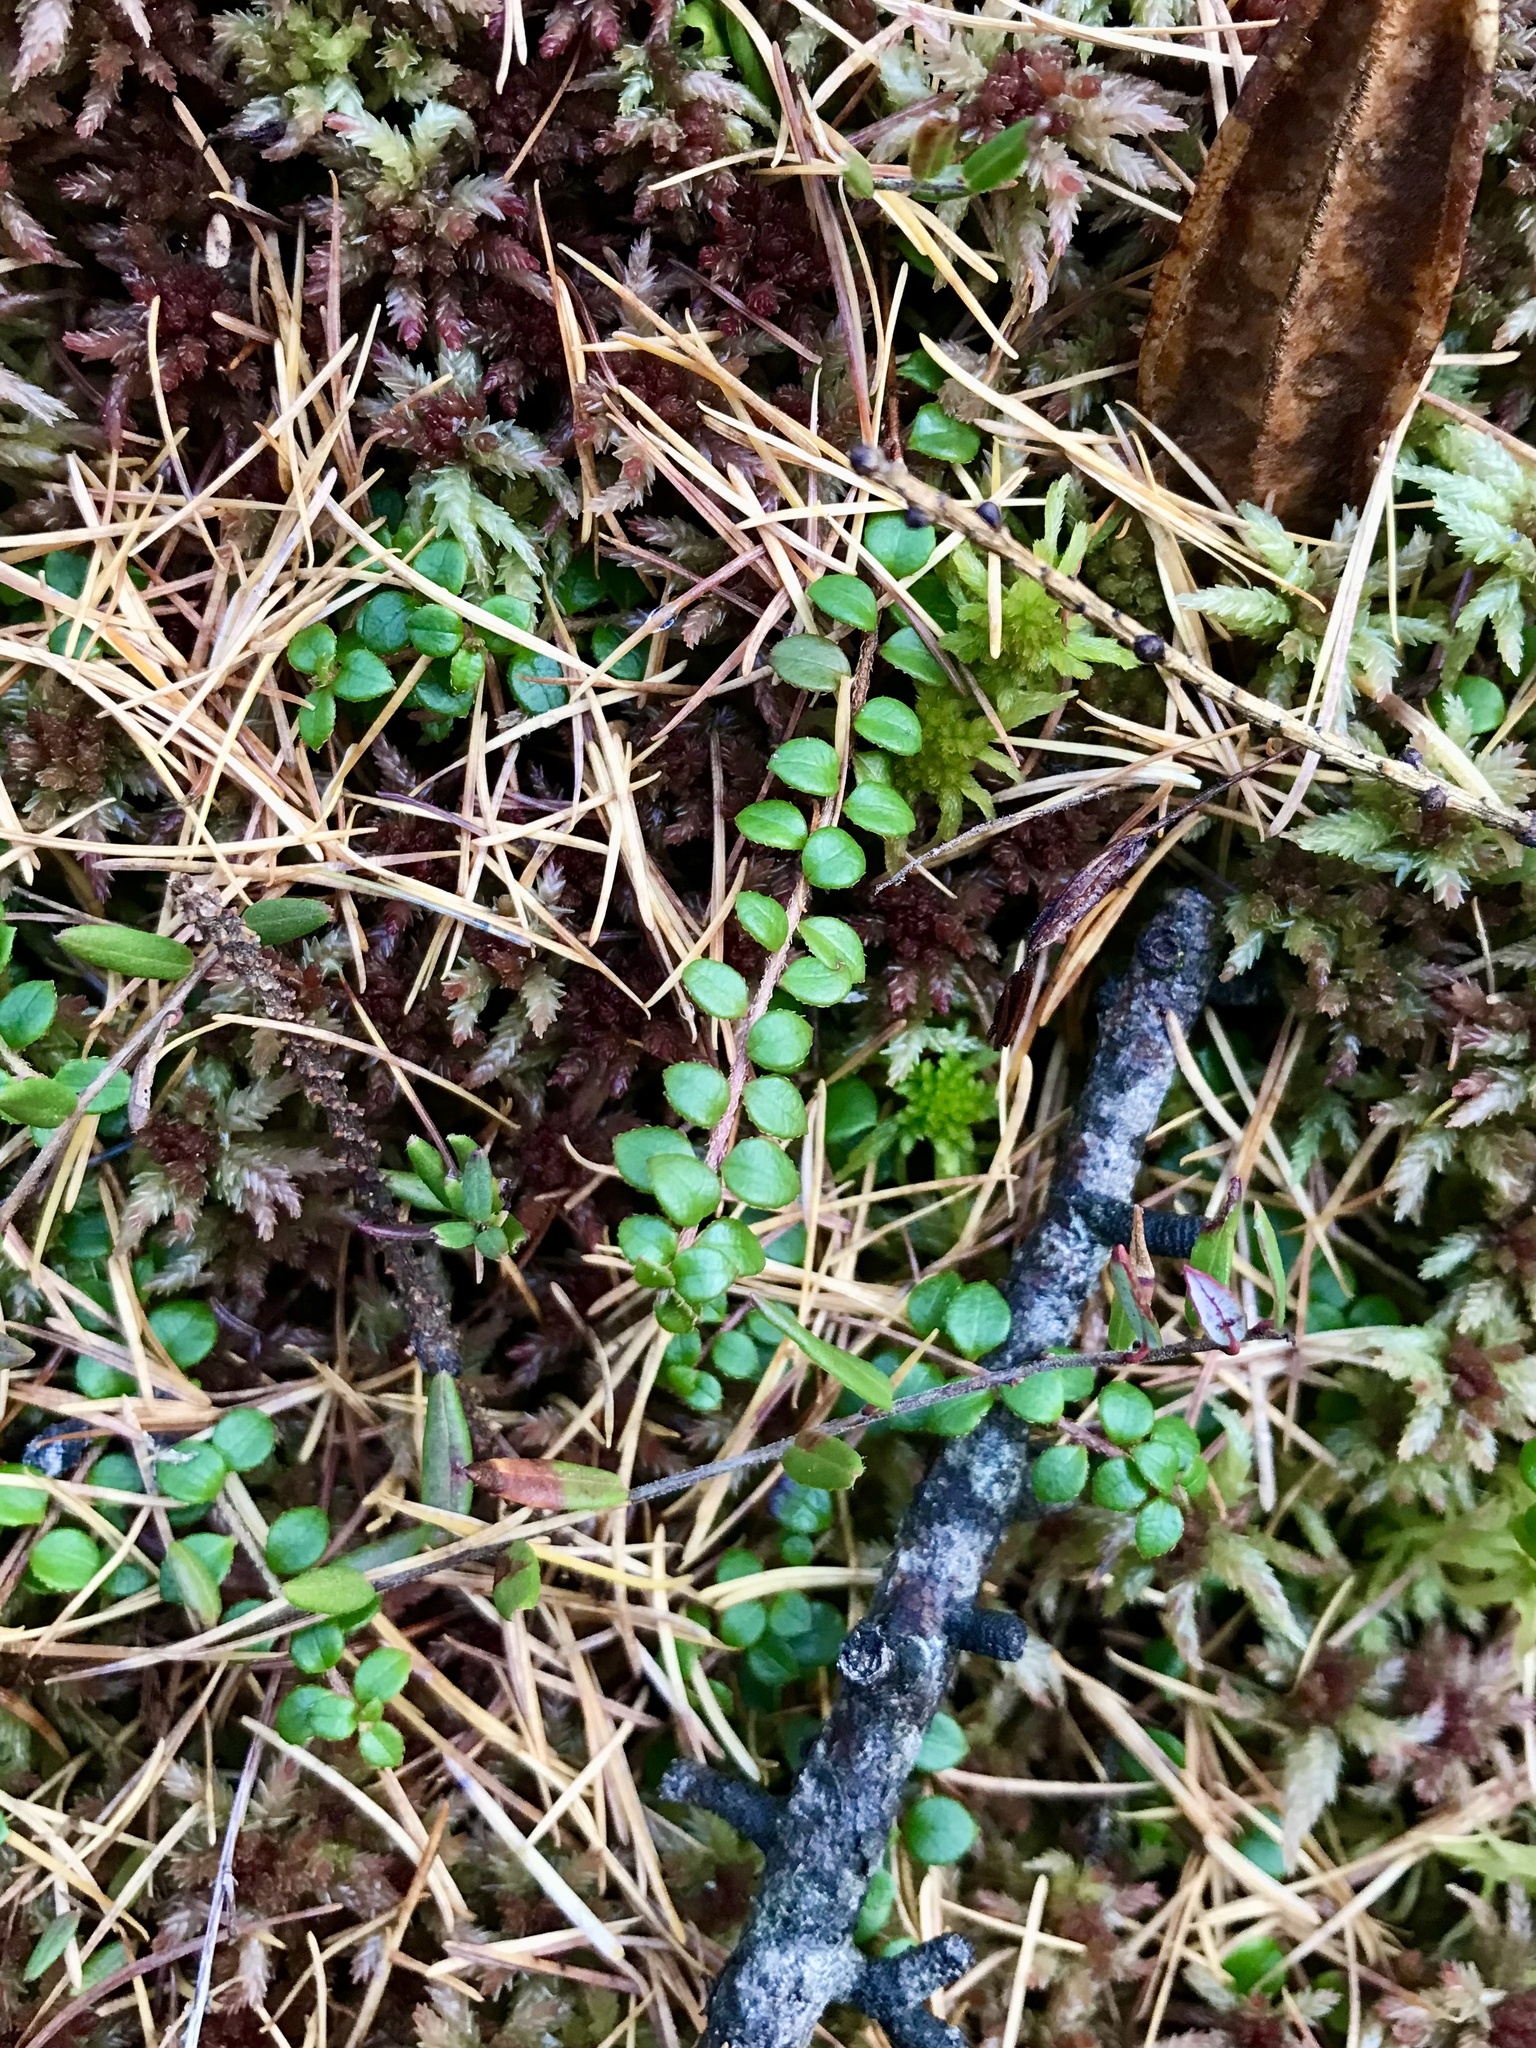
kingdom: Plantae
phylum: Tracheophyta
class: Magnoliopsida
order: Ericales
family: Ericaceae
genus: Gaultheria
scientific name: Gaultheria hispidula
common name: Cancer wintergreen
